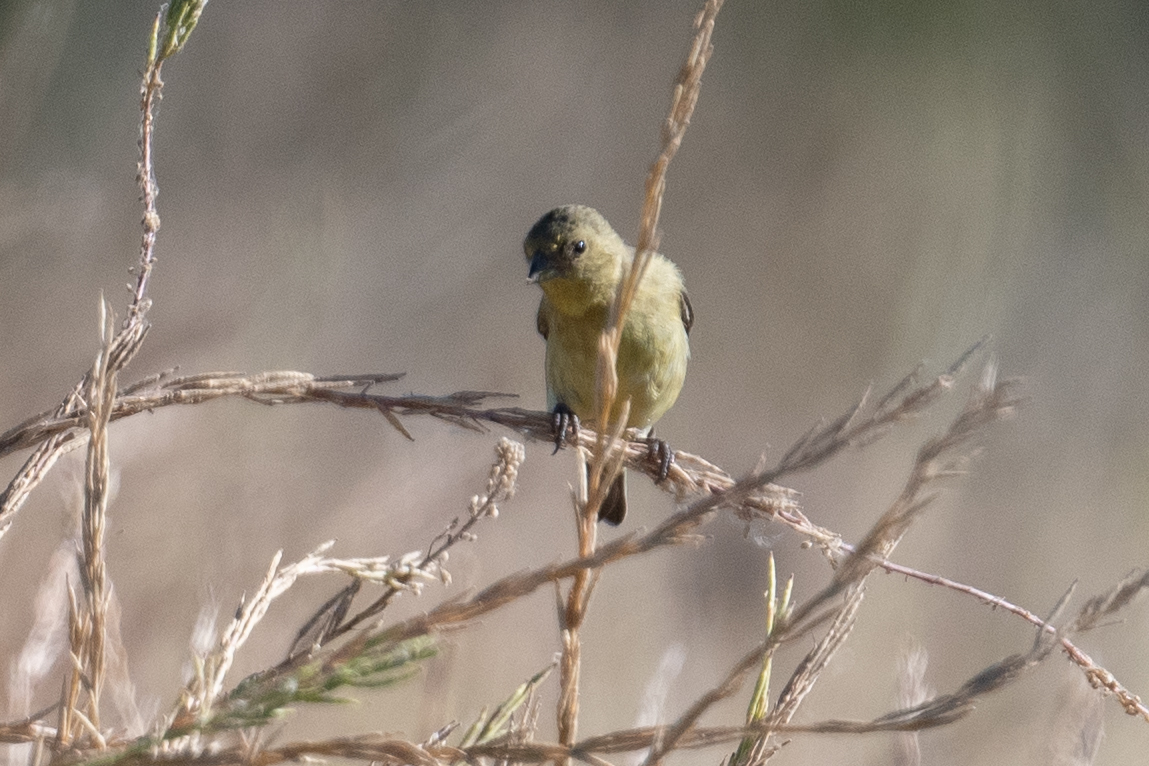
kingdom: Animalia
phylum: Chordata
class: Aves
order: Passeriformes
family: Fringillidae
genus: Spinus
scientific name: Spinus psaltria
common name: Lesser goldfinch
